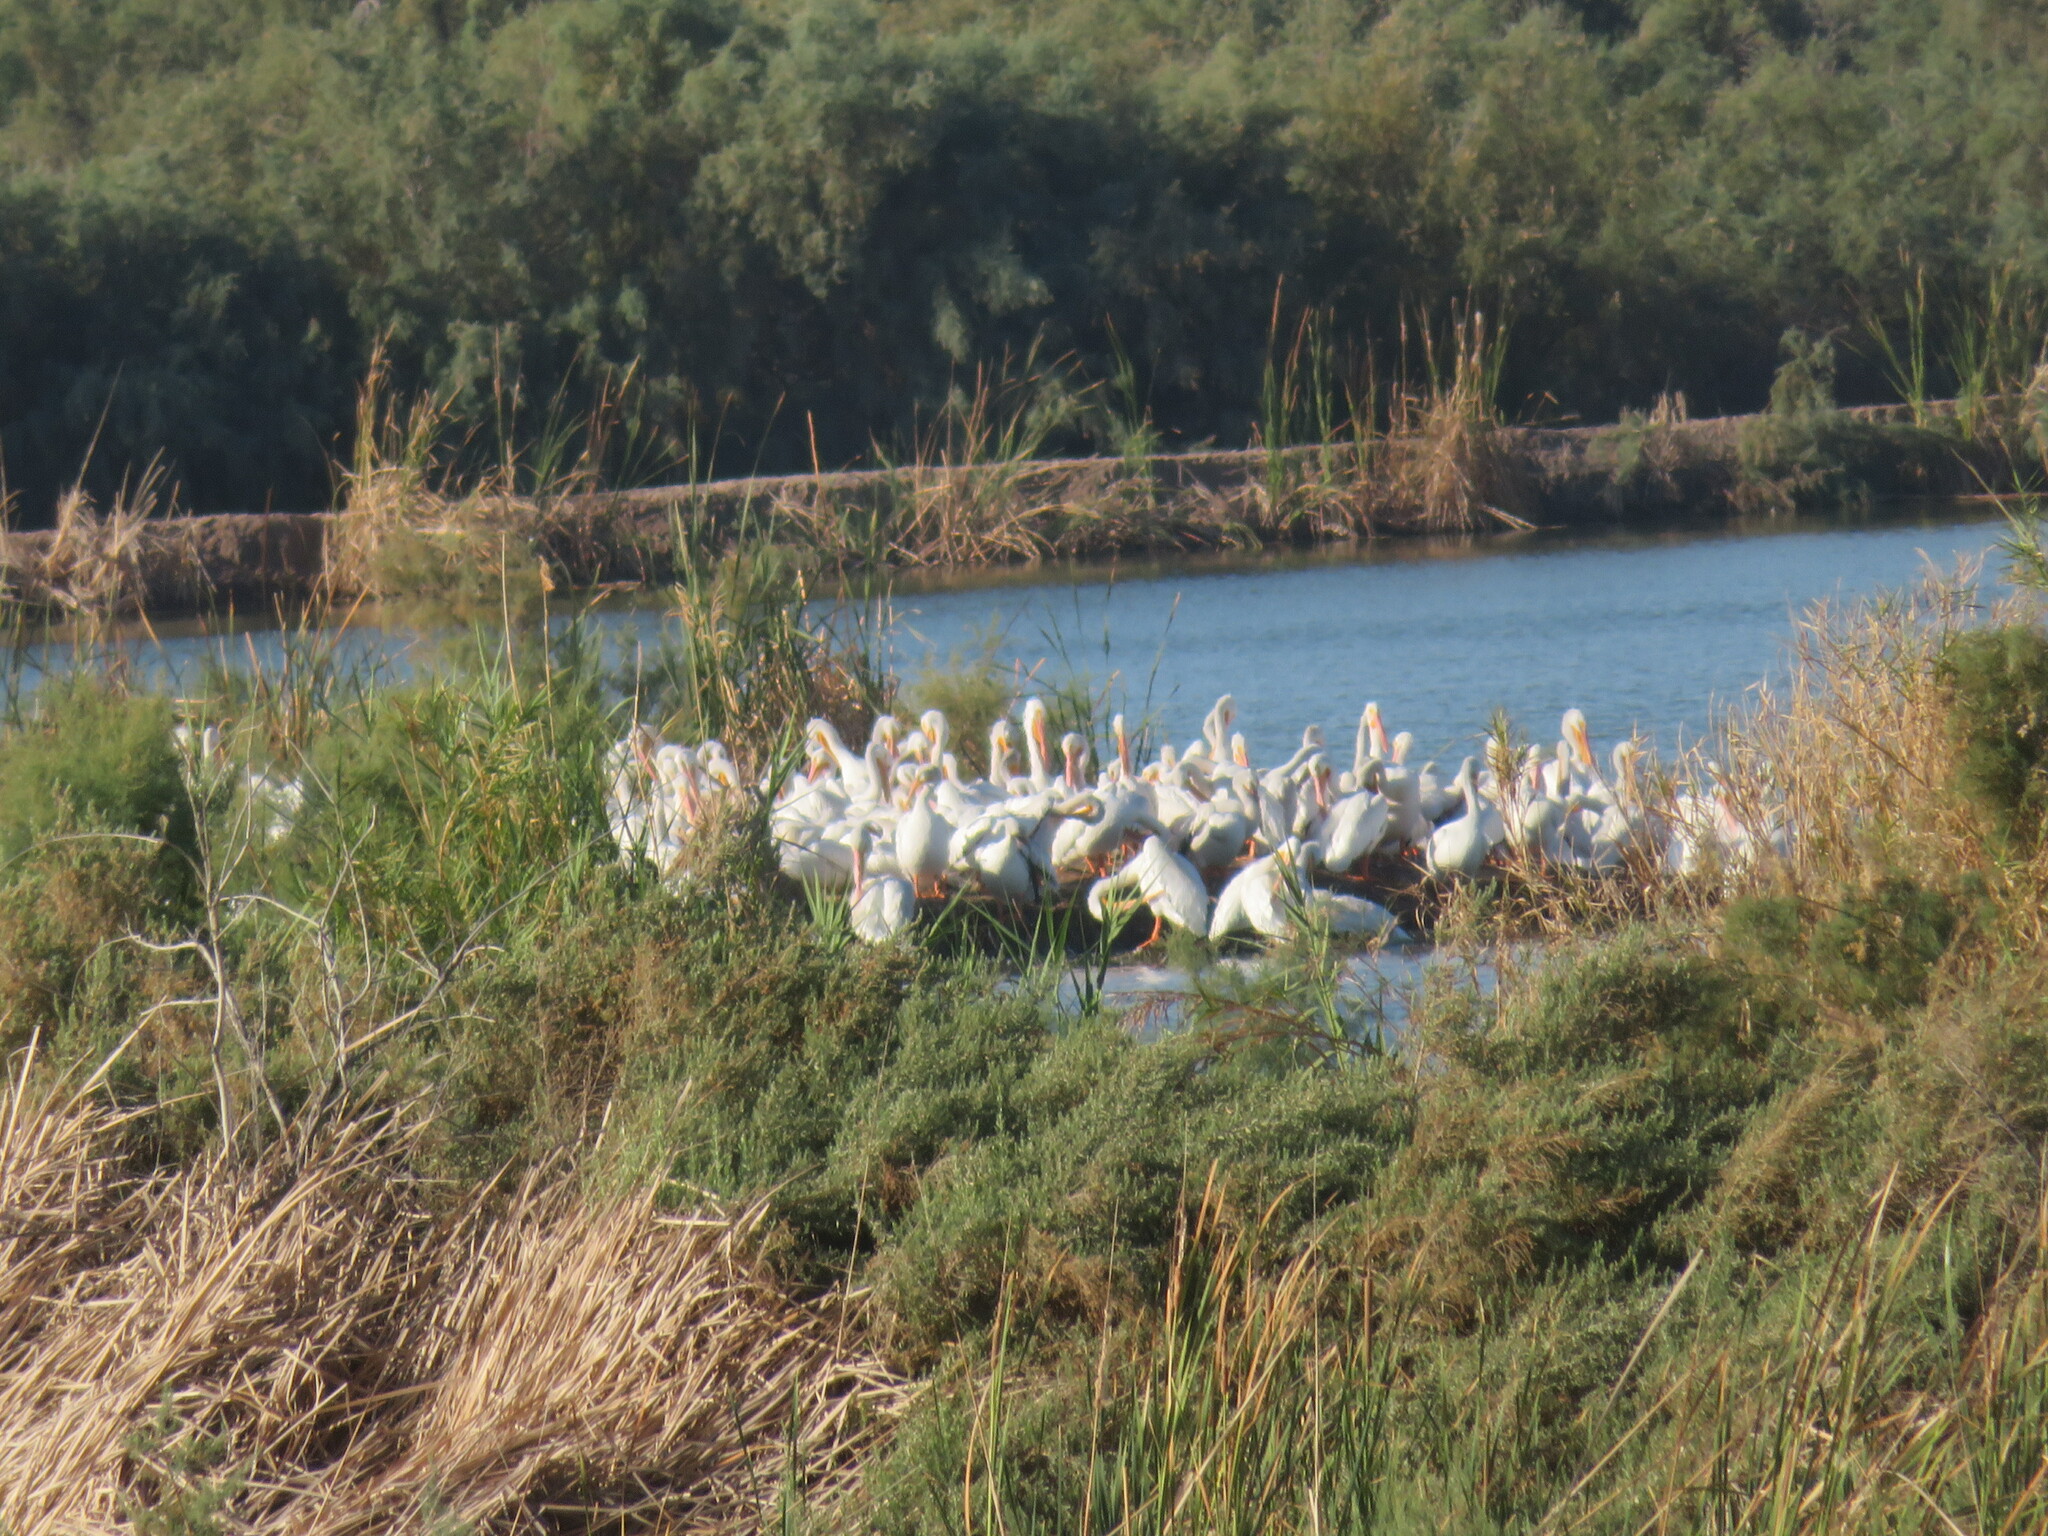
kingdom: Animalia
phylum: Chordata
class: Aves
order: Pelecaniformes
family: Pelecanidae
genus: Pelecanus
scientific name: Pelecanus erythrorhynchos
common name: American white pelican
